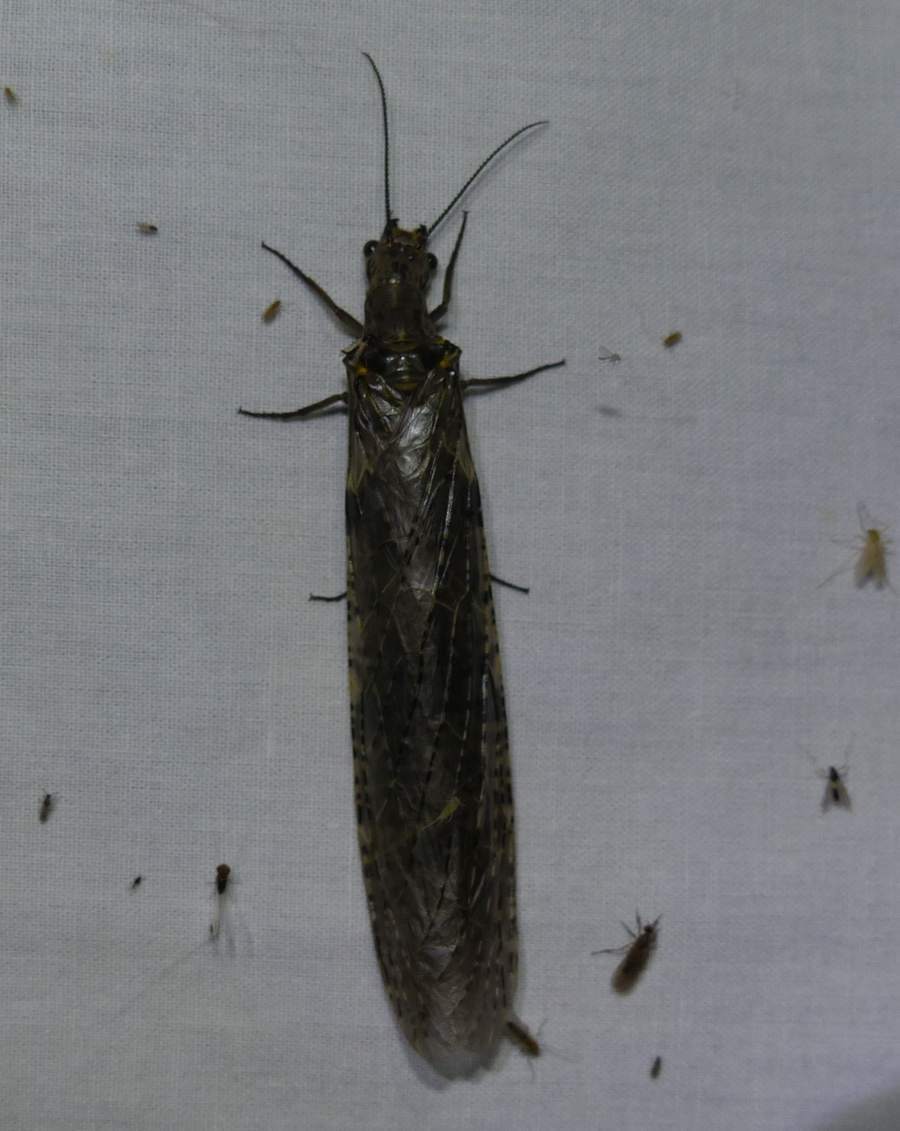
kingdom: Animalia
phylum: Arthropoda
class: Insecta
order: Megaloptera
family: Corydalidae
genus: Chauliodes
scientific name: Chauliodes rastricornis
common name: Spring fishfly
